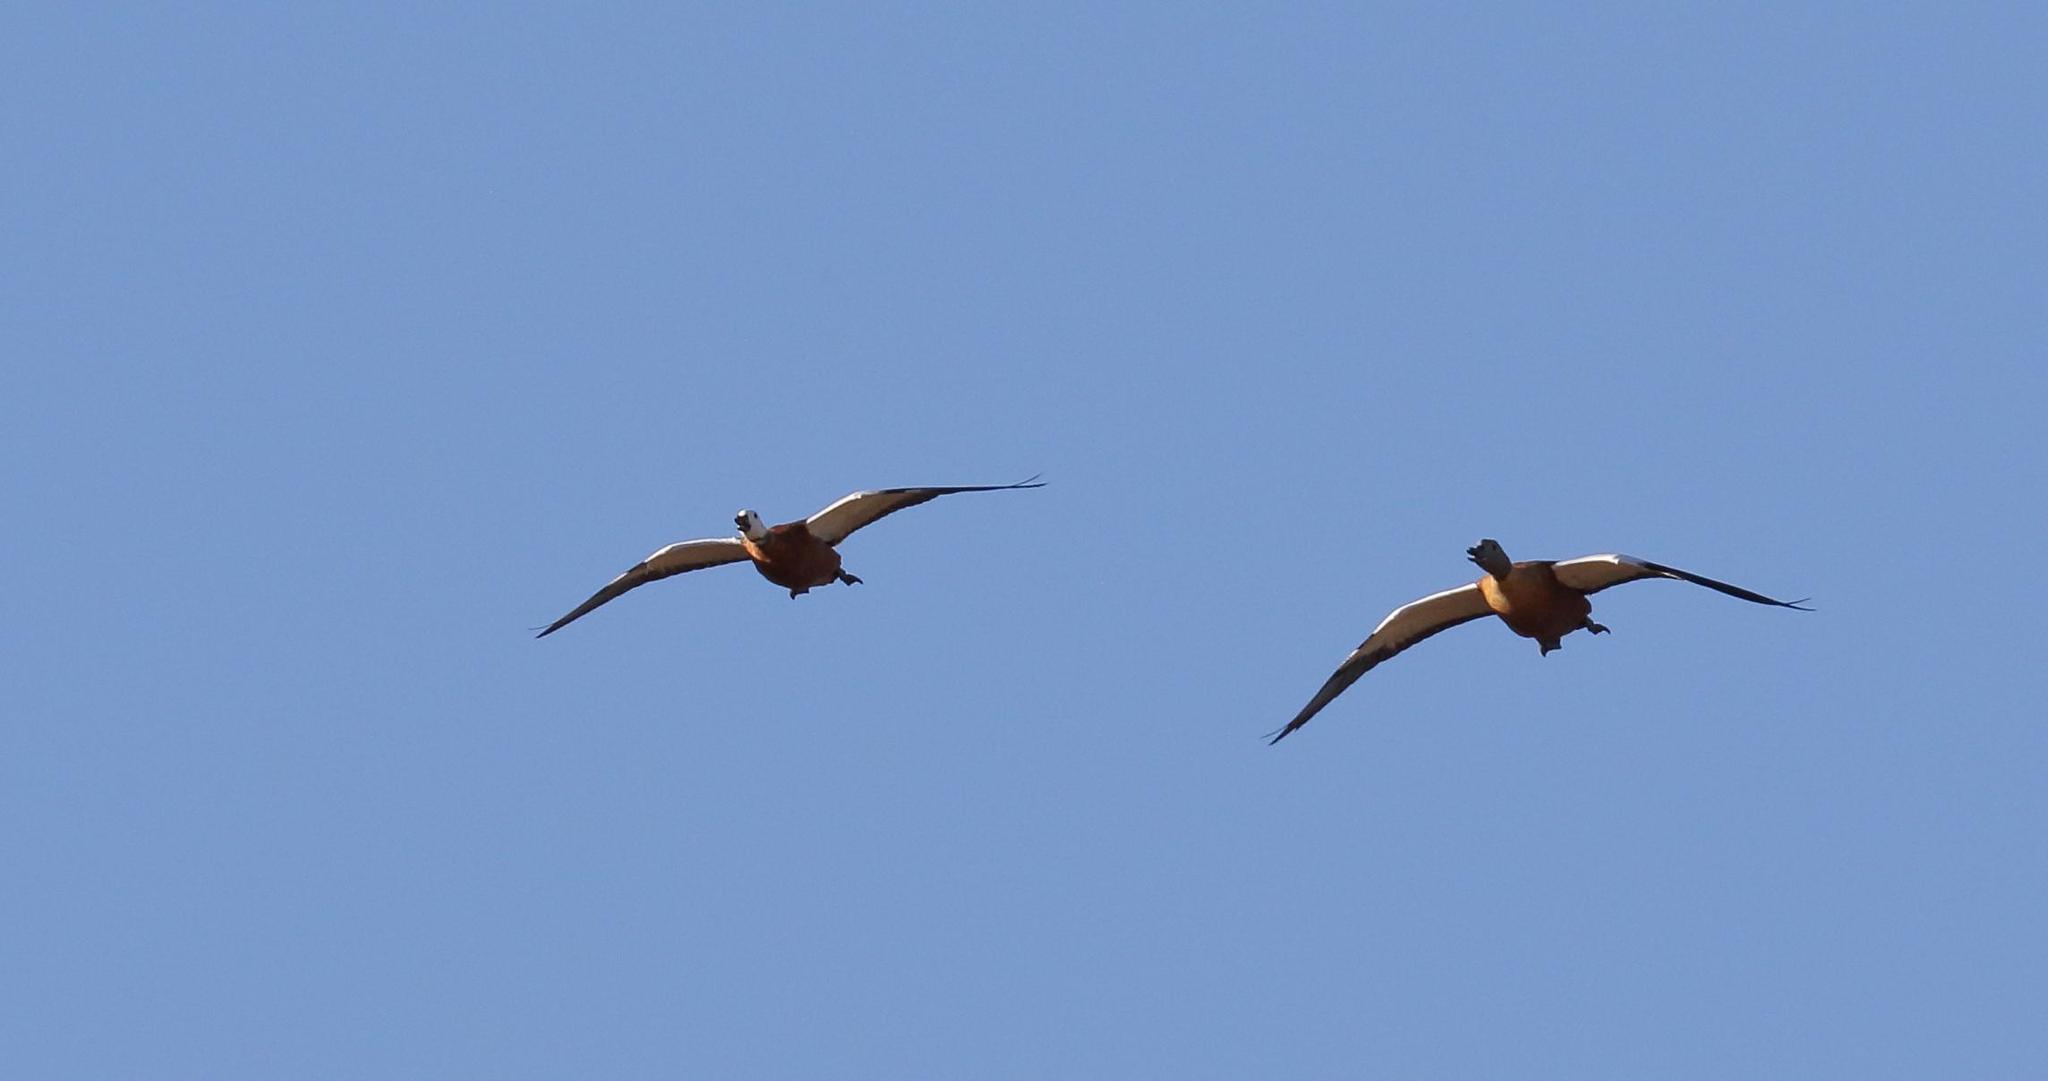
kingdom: Animalia
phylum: Chordata
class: Aves
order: Anseriformes
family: Anatidae
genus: Tadorna
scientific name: Tadorna cana
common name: South african shelduck
